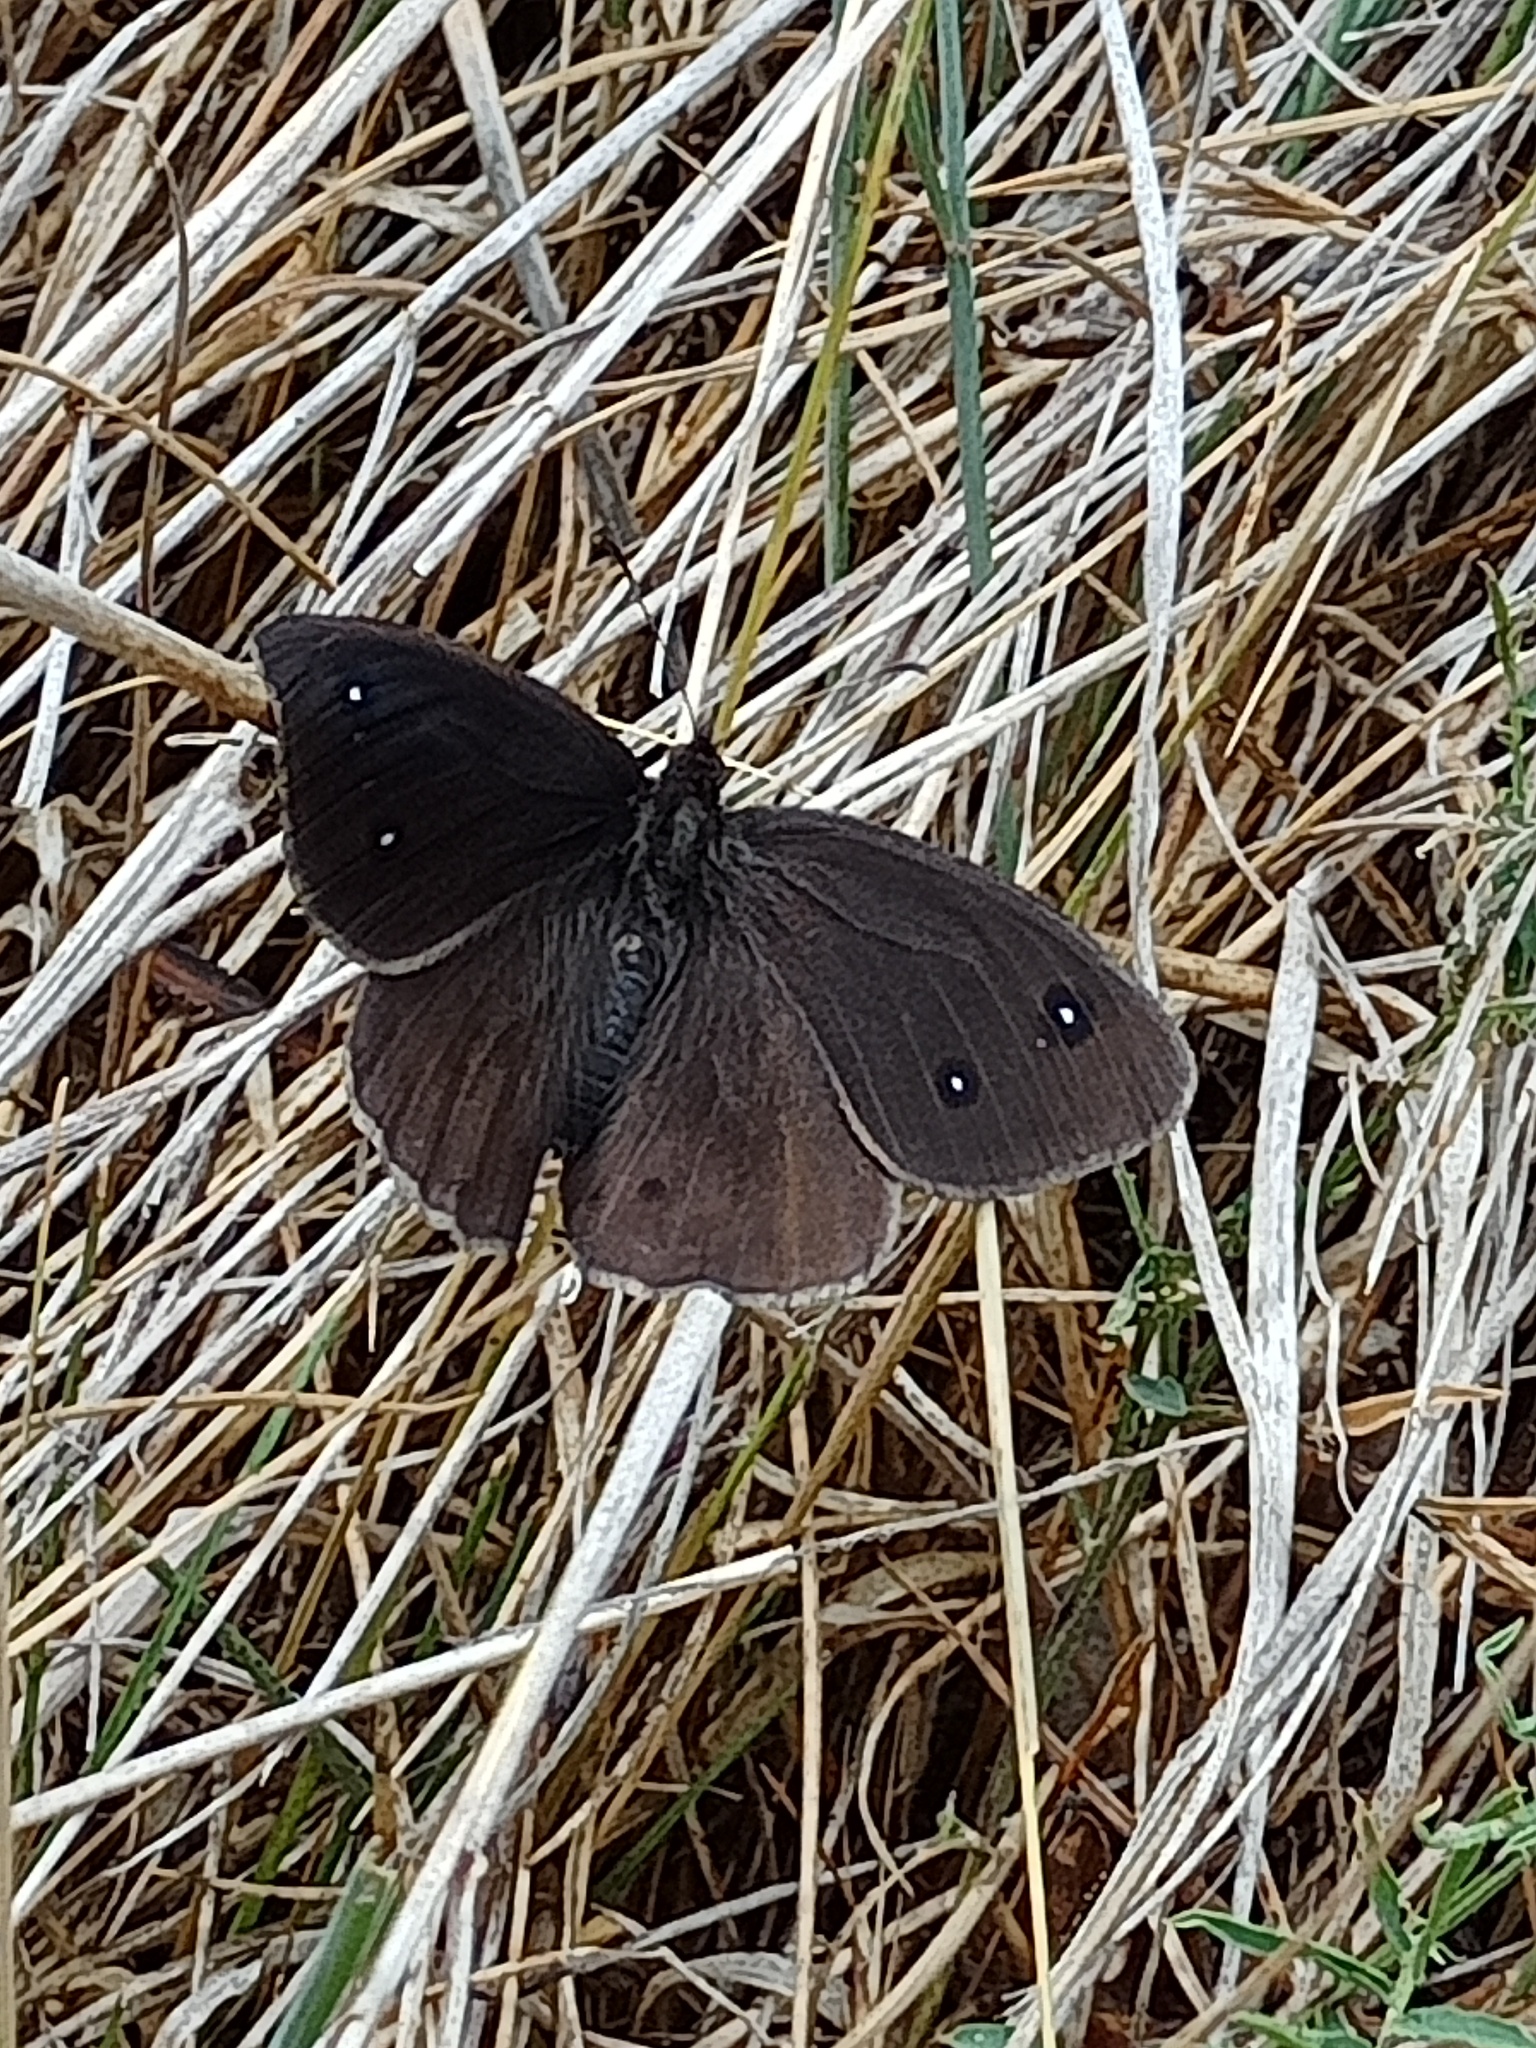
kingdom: Animalia
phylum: Arthropoda
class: Insecta
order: Lepidoptera
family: Nymphalidae
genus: Satyrus
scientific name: Satyrus ferula
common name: Great sooty satyr
